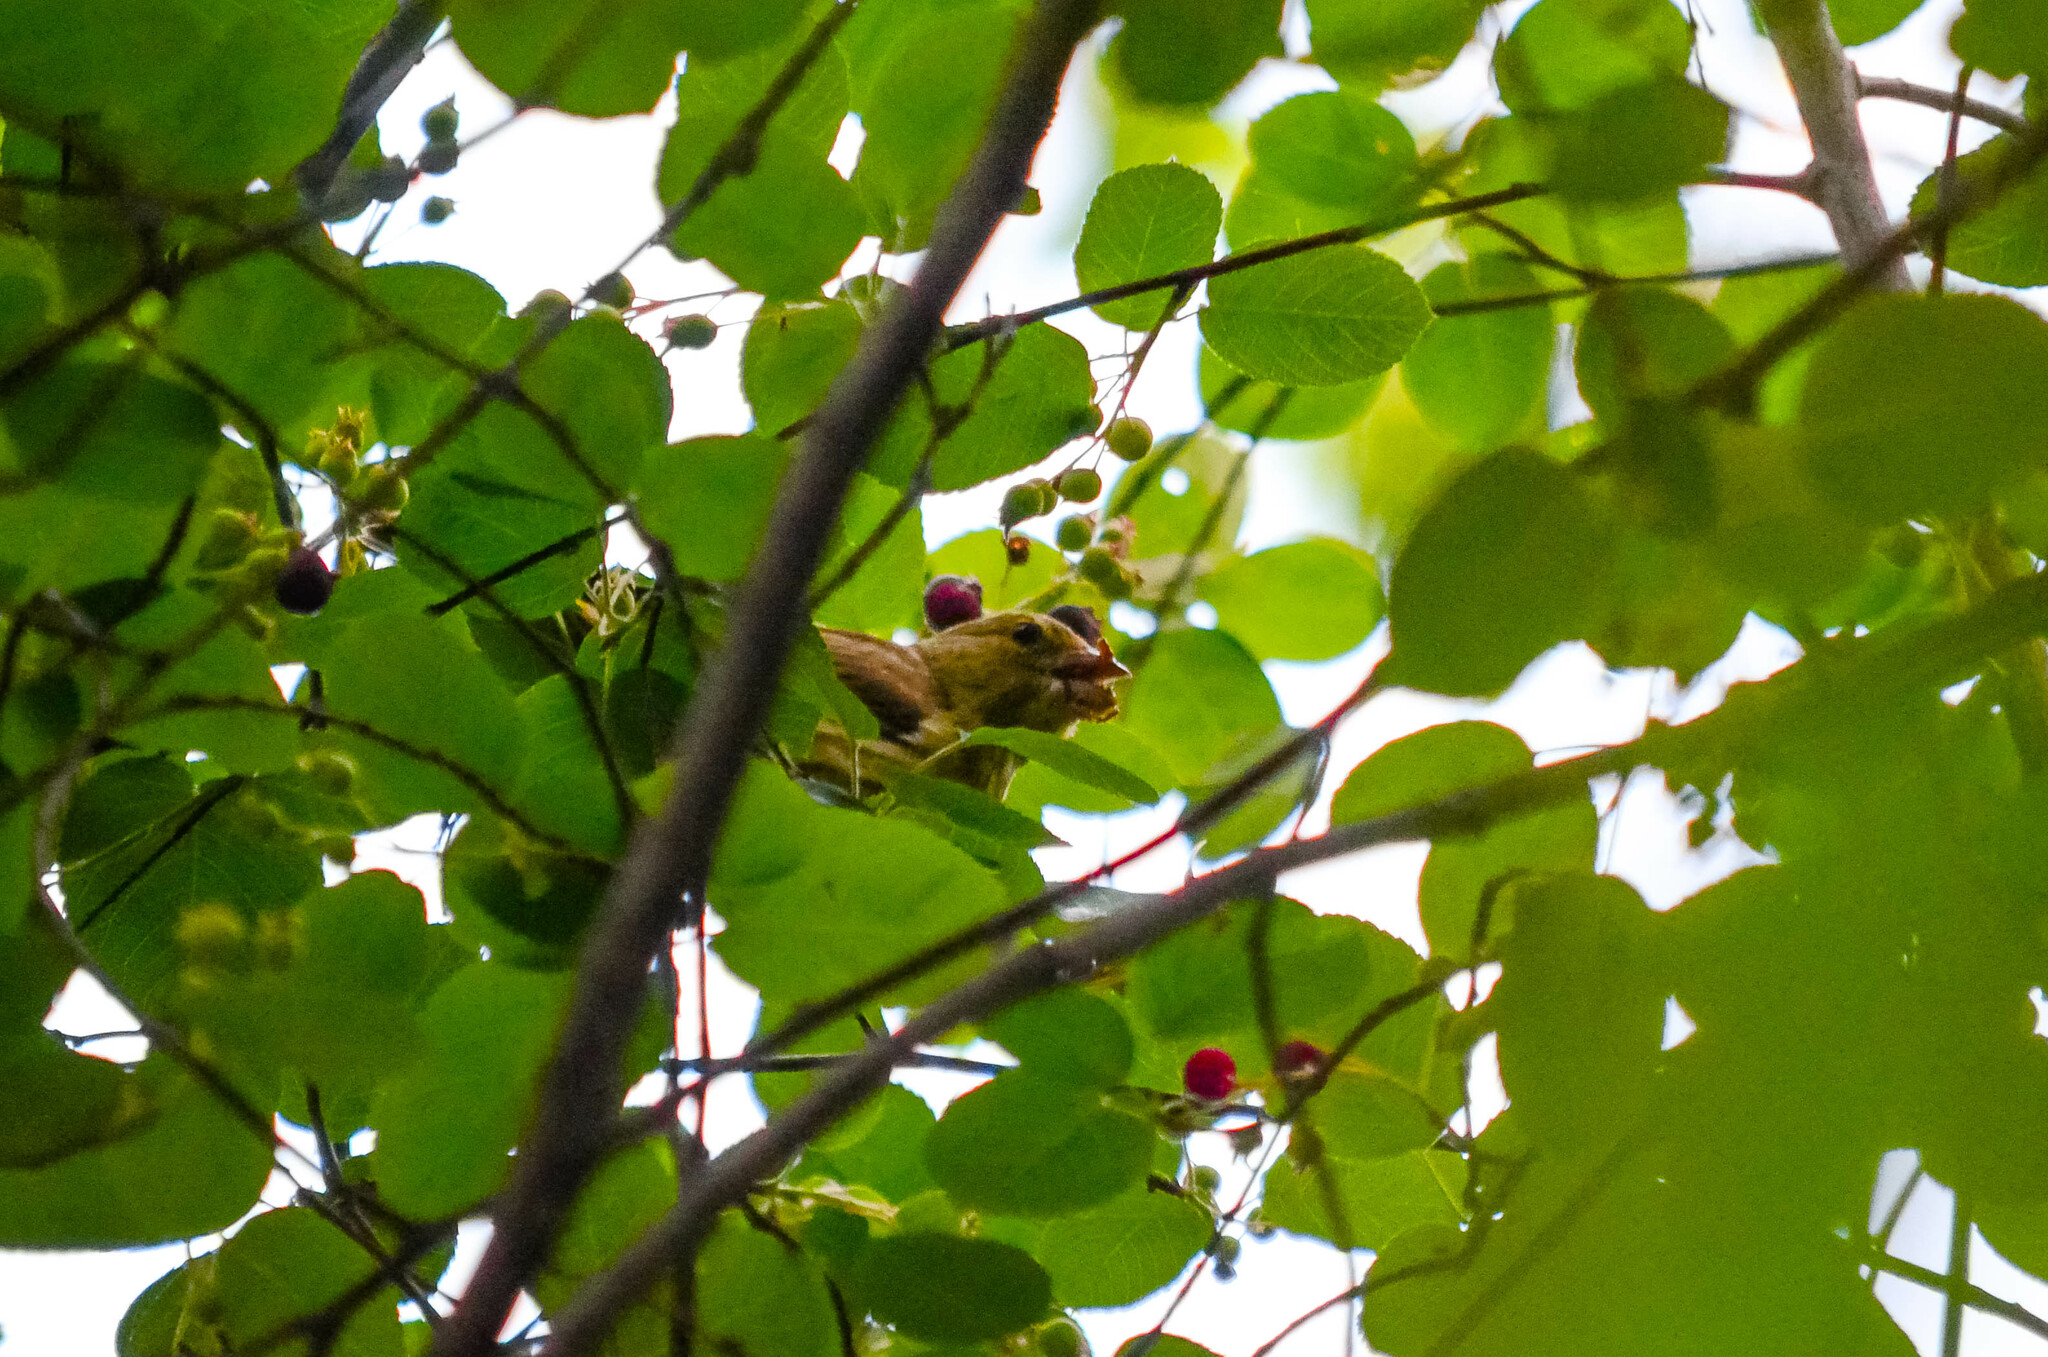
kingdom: Plantae
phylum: Tracheophyta
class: Liliopsida
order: Poales
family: Poaceae
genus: Chloris
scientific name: Chloris chloris
